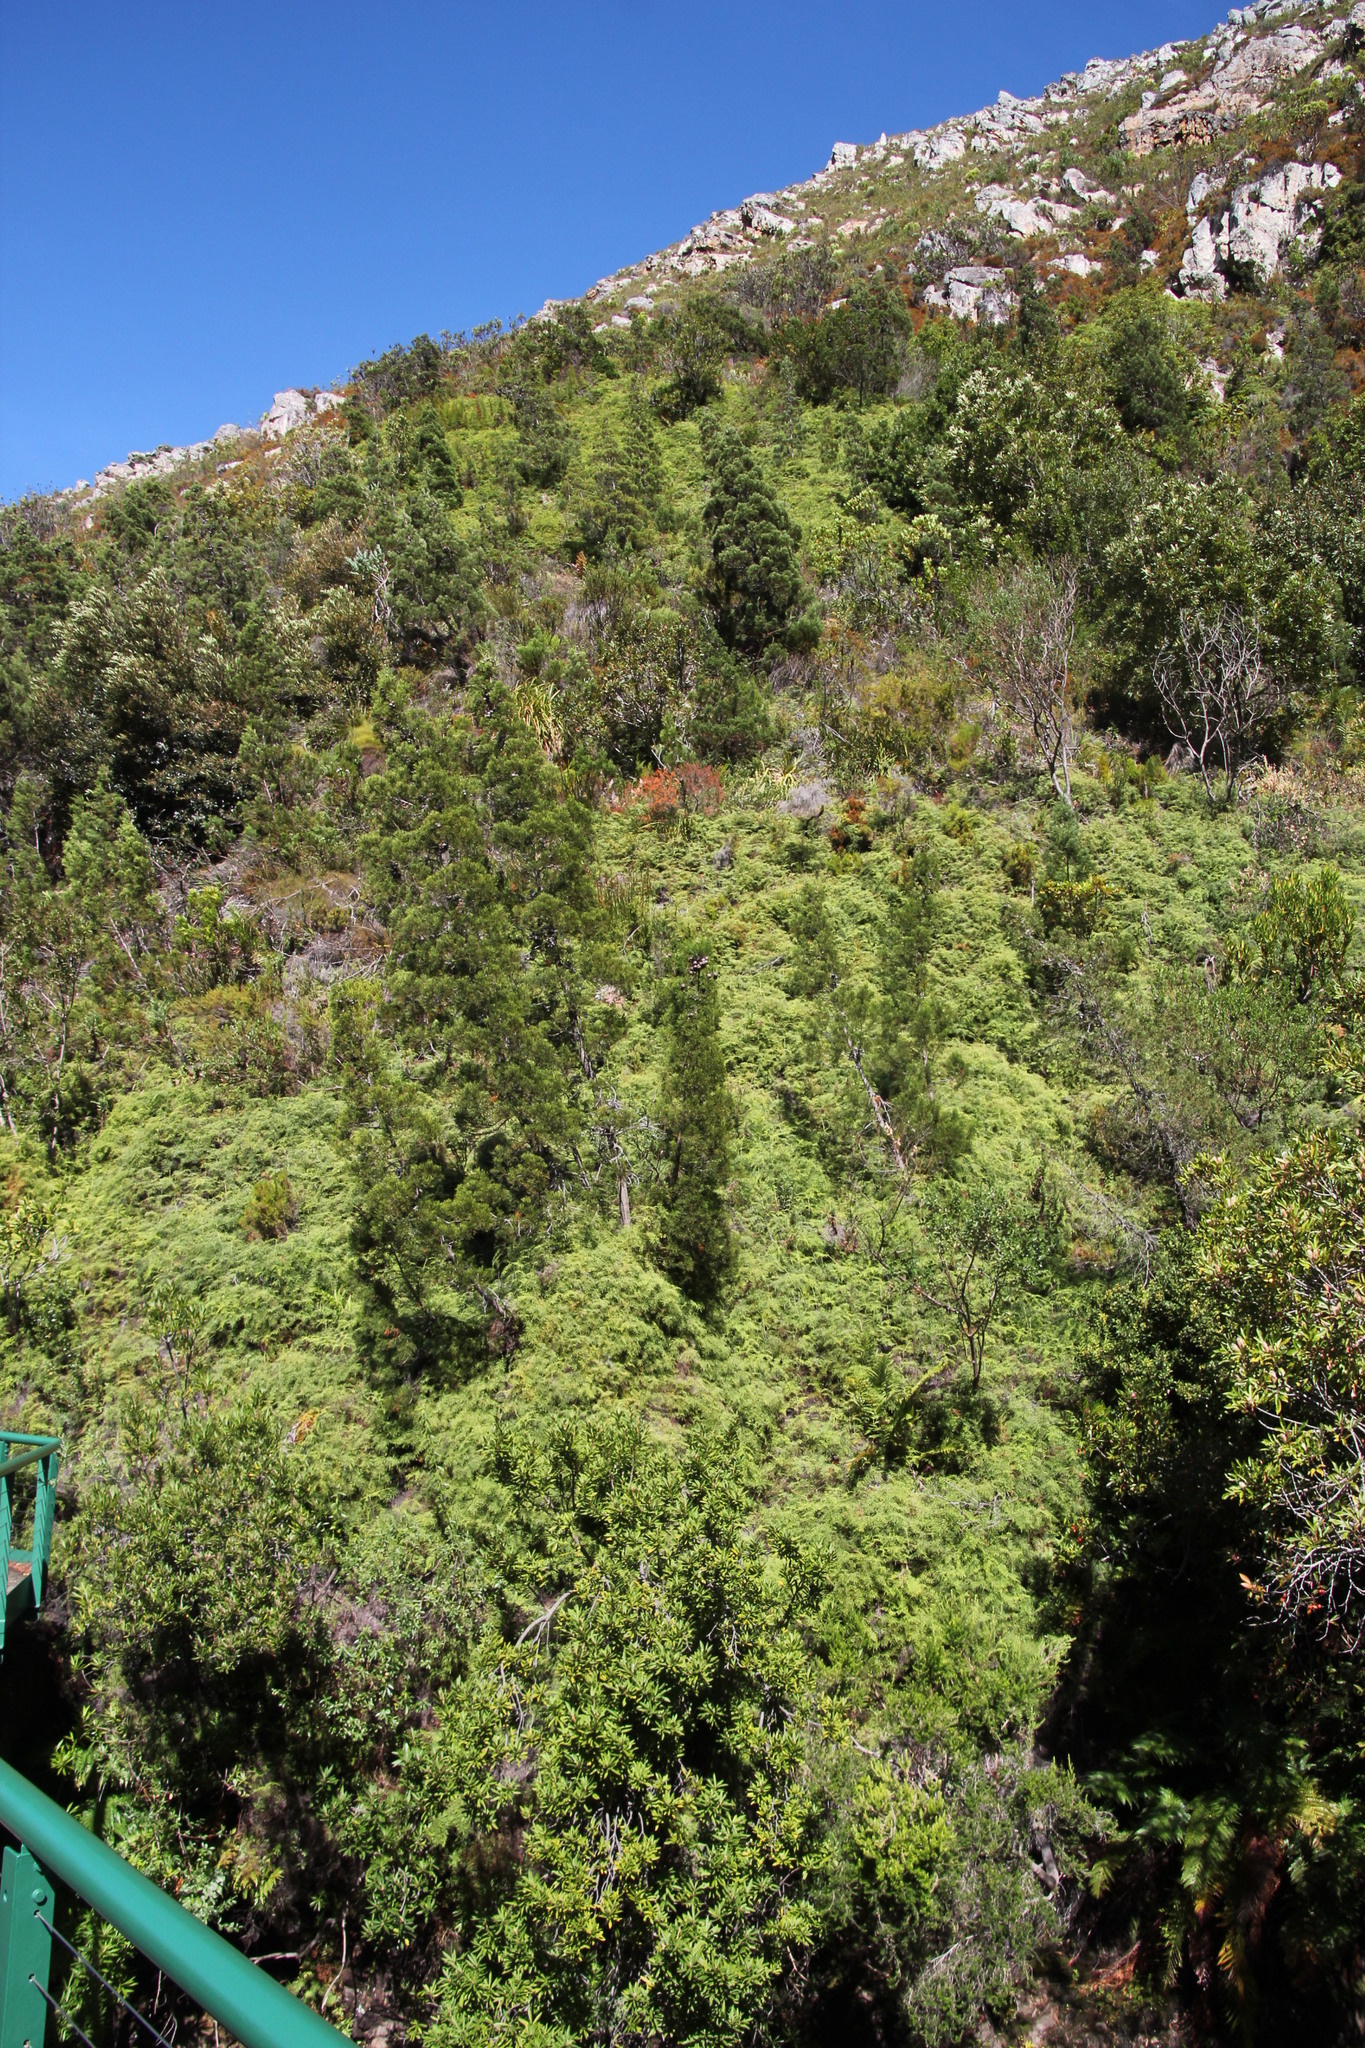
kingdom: Plantae
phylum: Tracheophyta
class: Pinopsida
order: Pinales
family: Cupressaceae
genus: Widdringtonia
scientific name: Widdringtonia nodiflora
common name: Cape cypress
